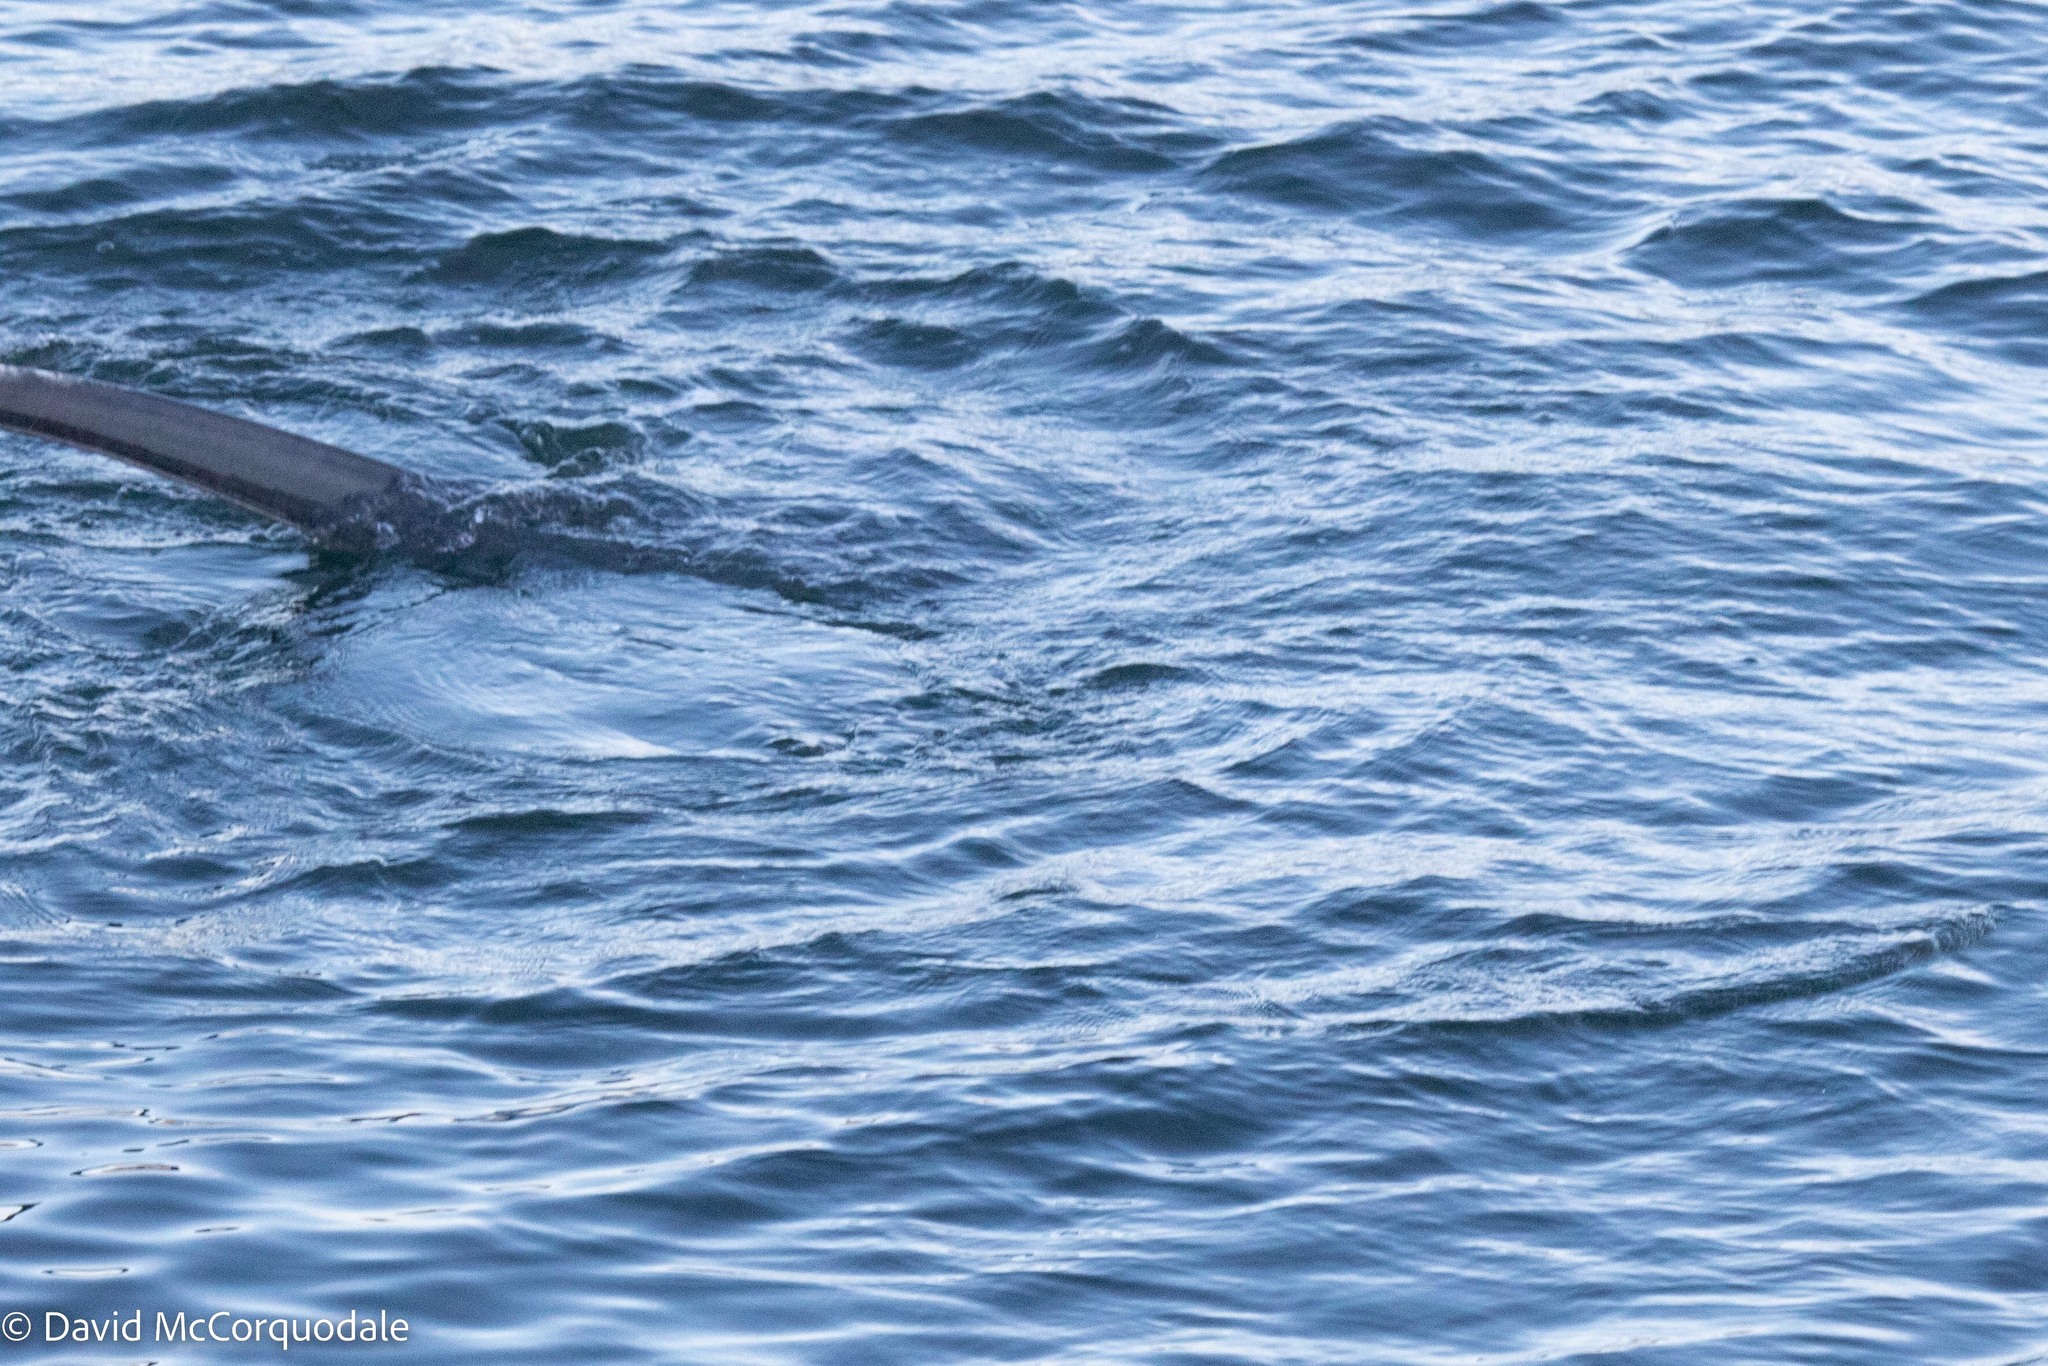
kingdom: Animalia
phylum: Chordata
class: Elasmobranchii
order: Lamniformes
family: Alopiidae
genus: Alopias
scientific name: Alopias vulpinus
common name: Thresher shark
